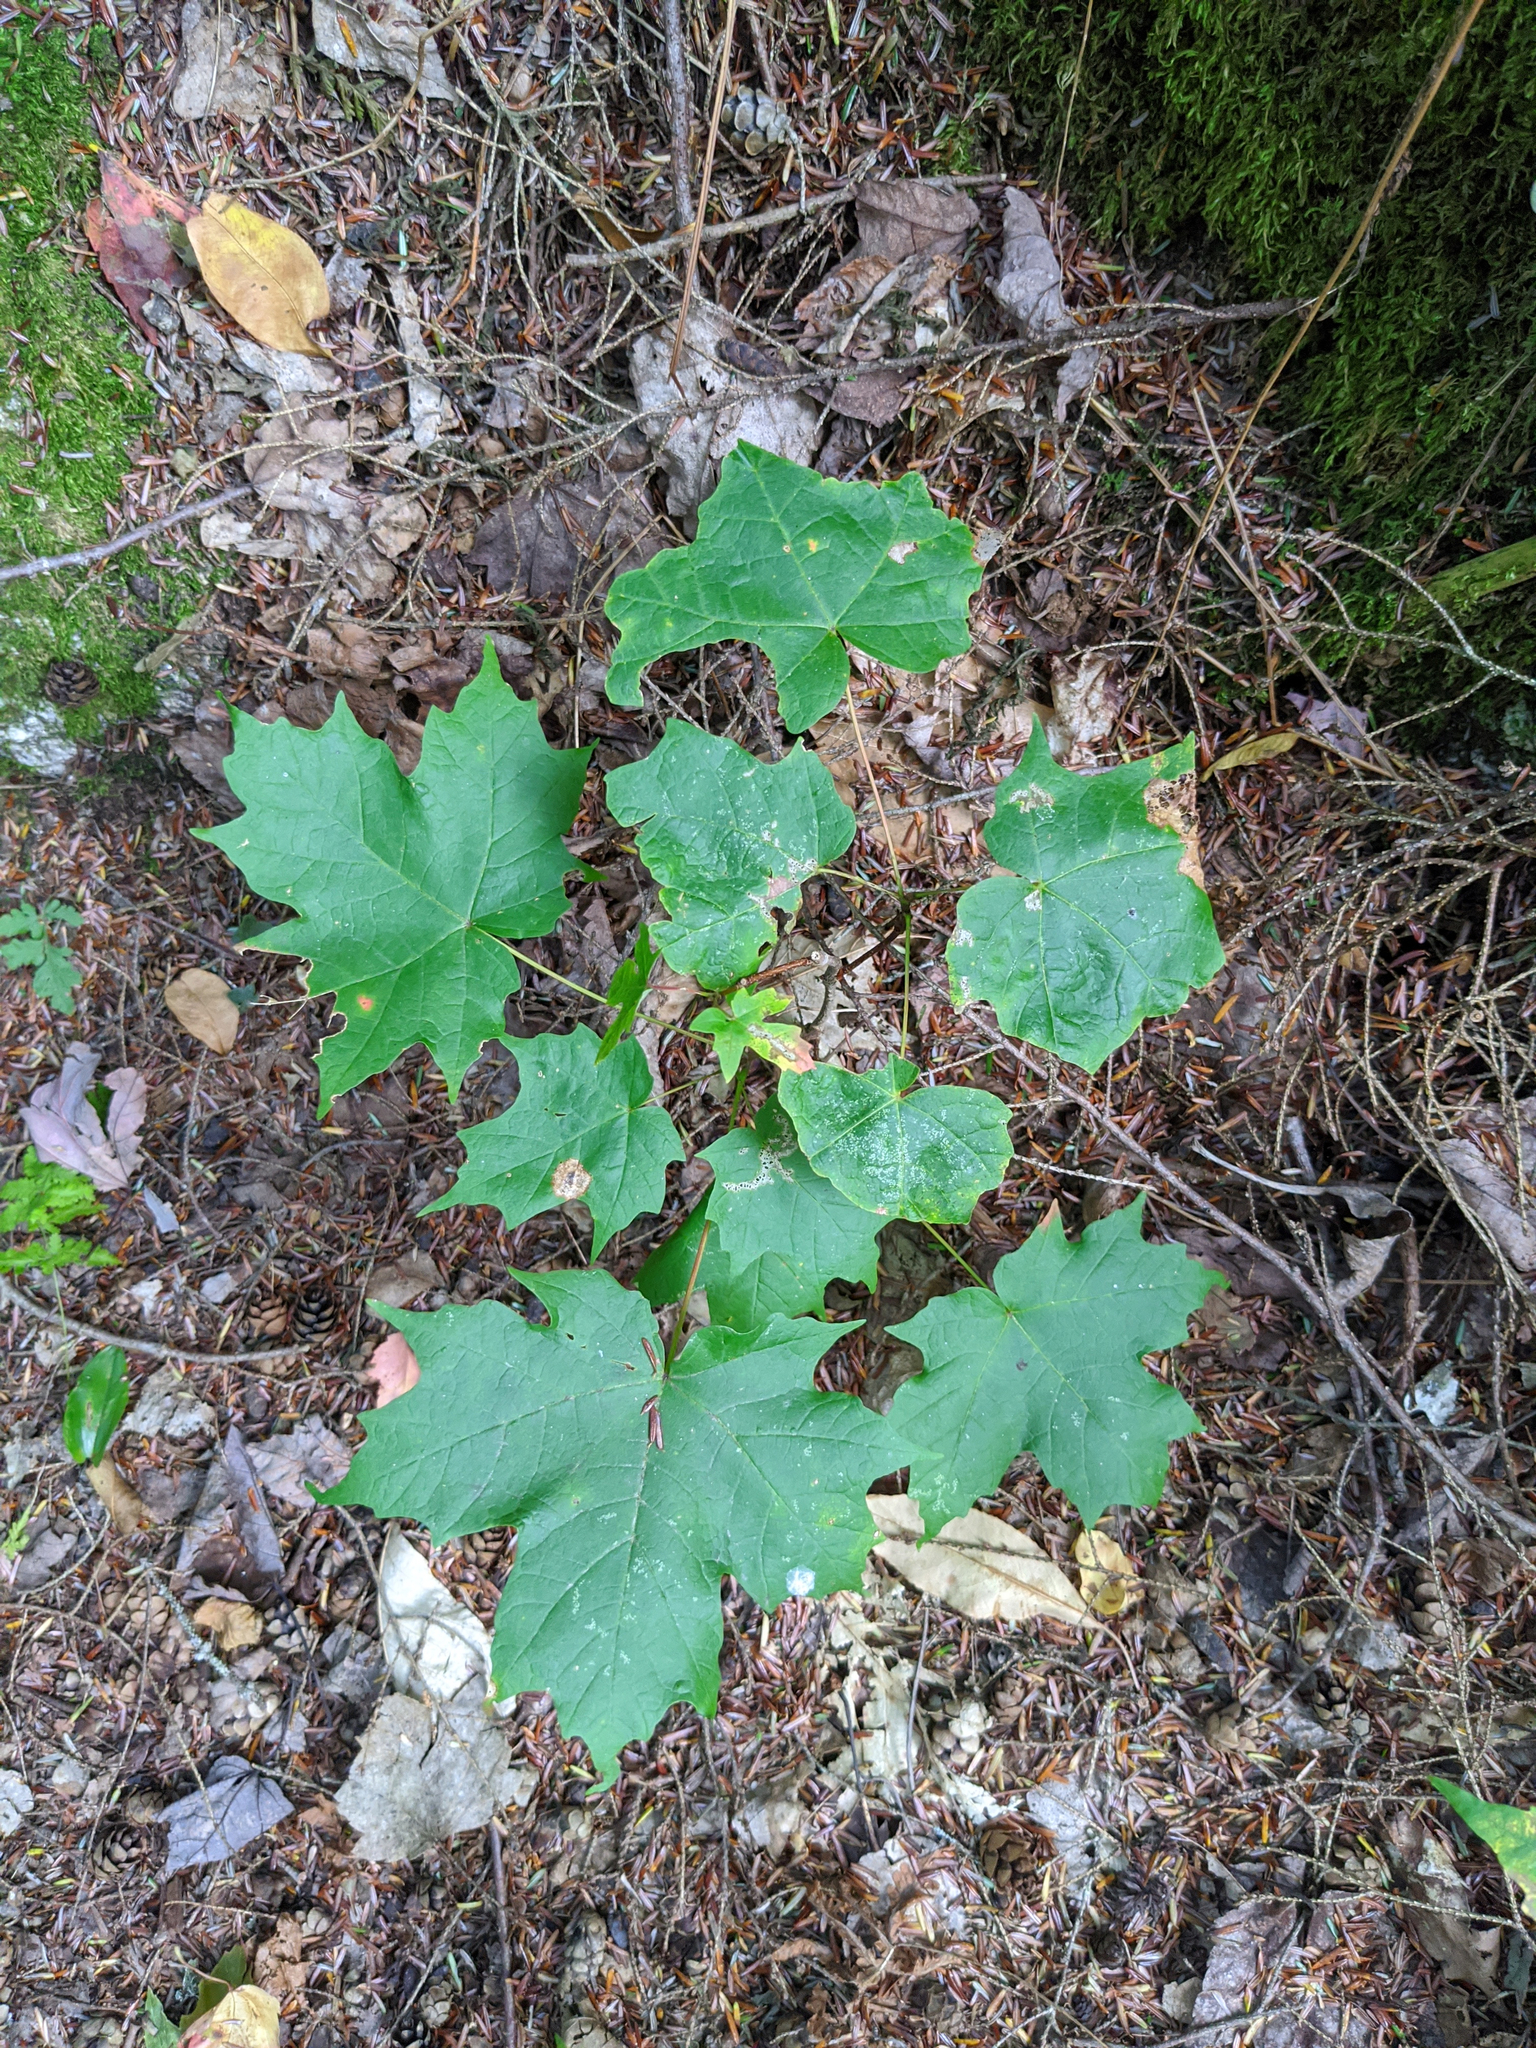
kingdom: Plantae
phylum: Tracheophyta
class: Magnoliopsida
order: Sapindales
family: Sapindaceae
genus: Acer
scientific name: Acer saccharum
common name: Sugar maple
